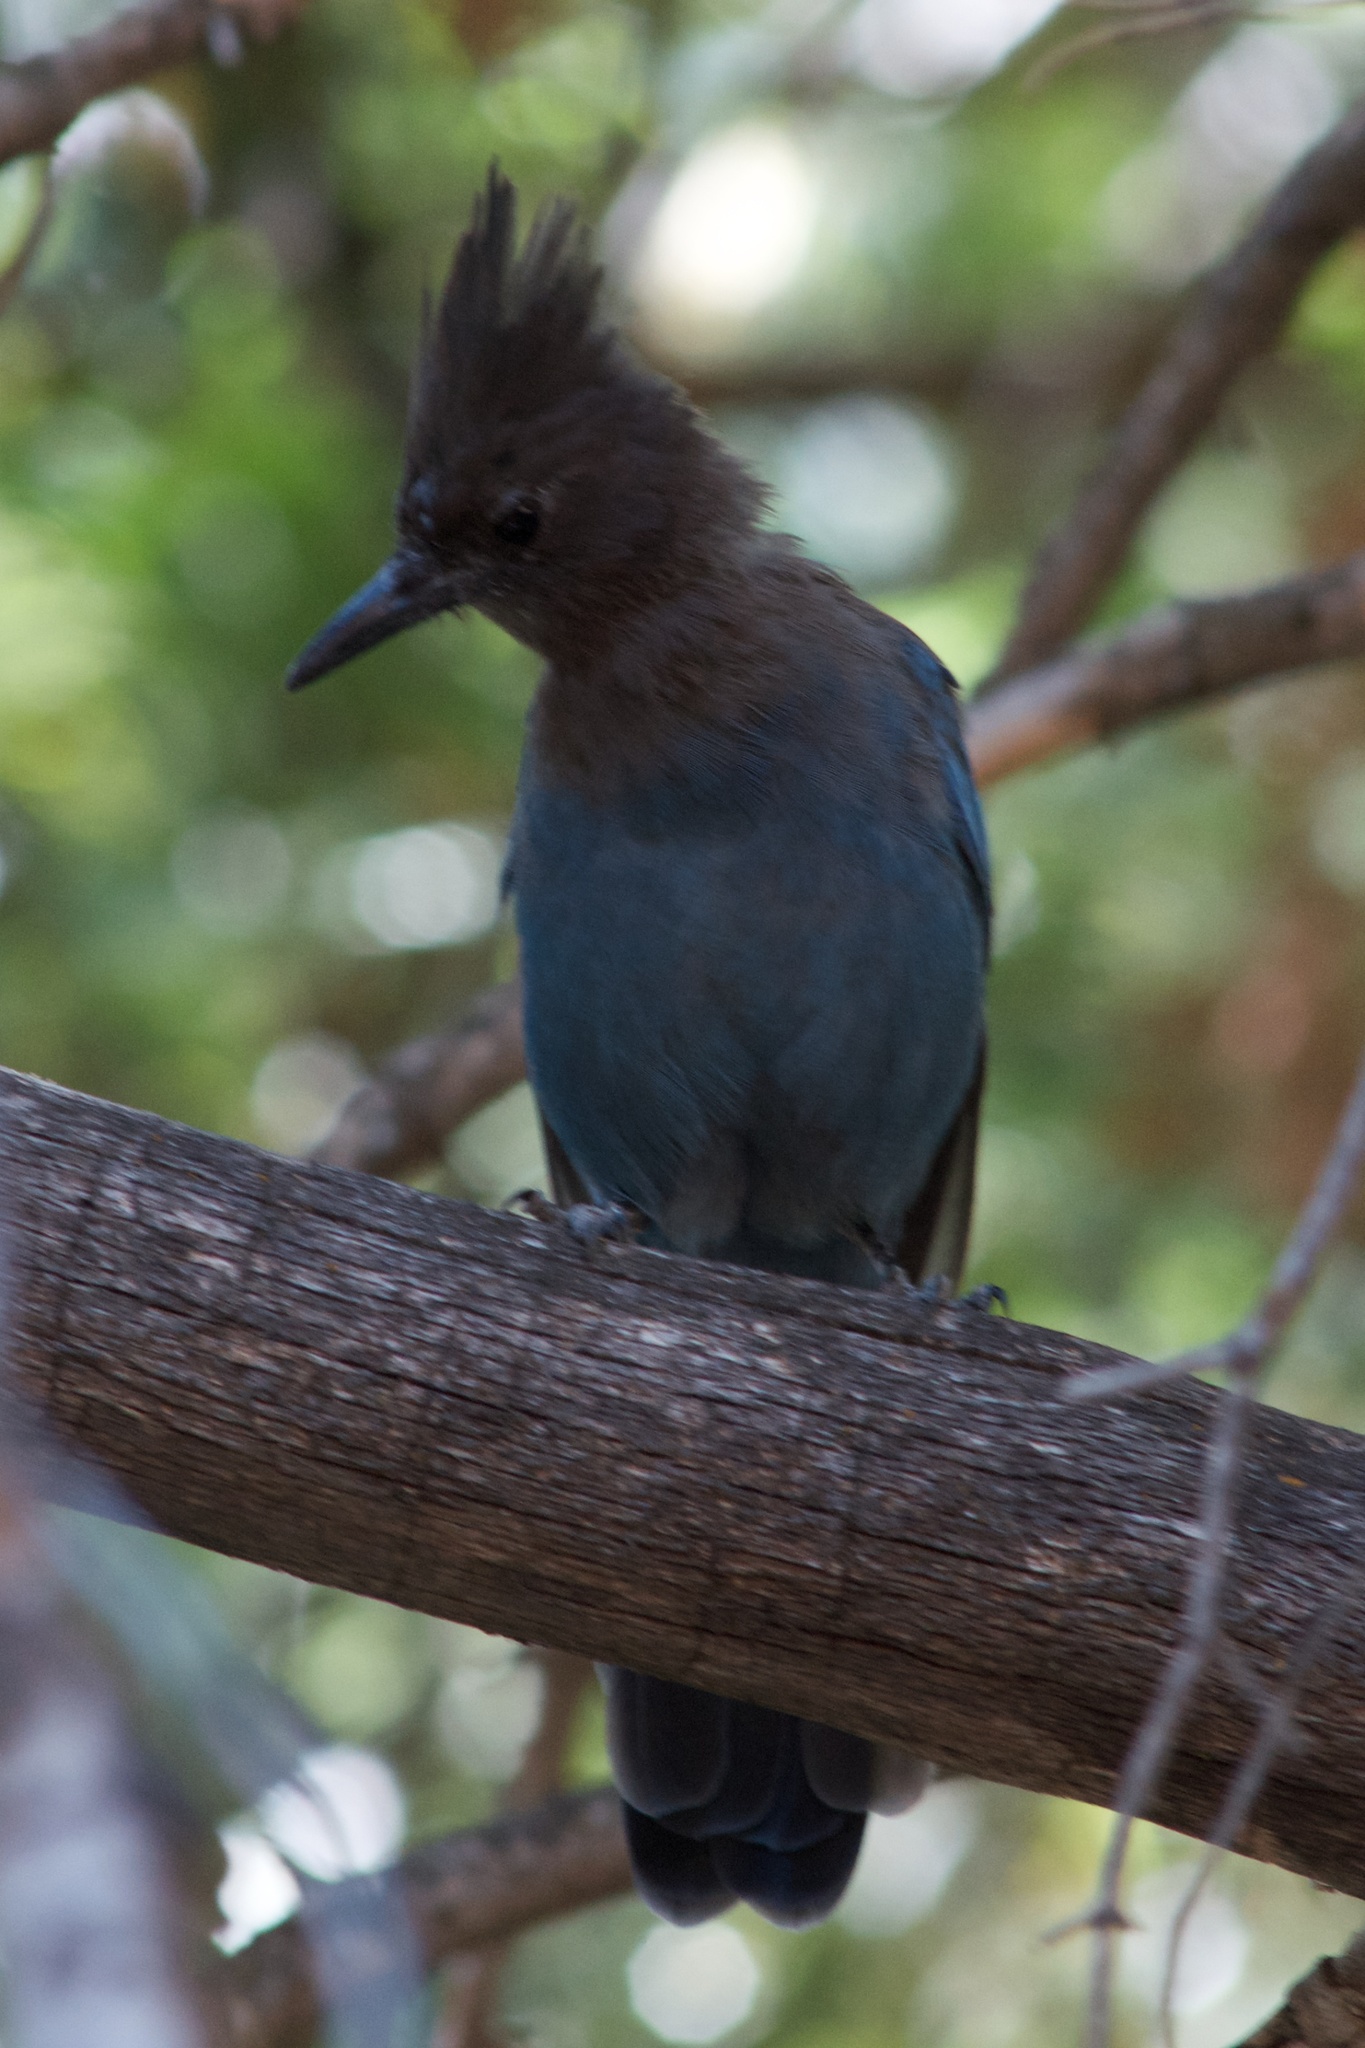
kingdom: Animalia
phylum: Chordata
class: Aves
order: Passeriformes
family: Corvidae
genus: Cyanocitta
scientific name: Cyanocitta stelleri
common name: Steller's jay
